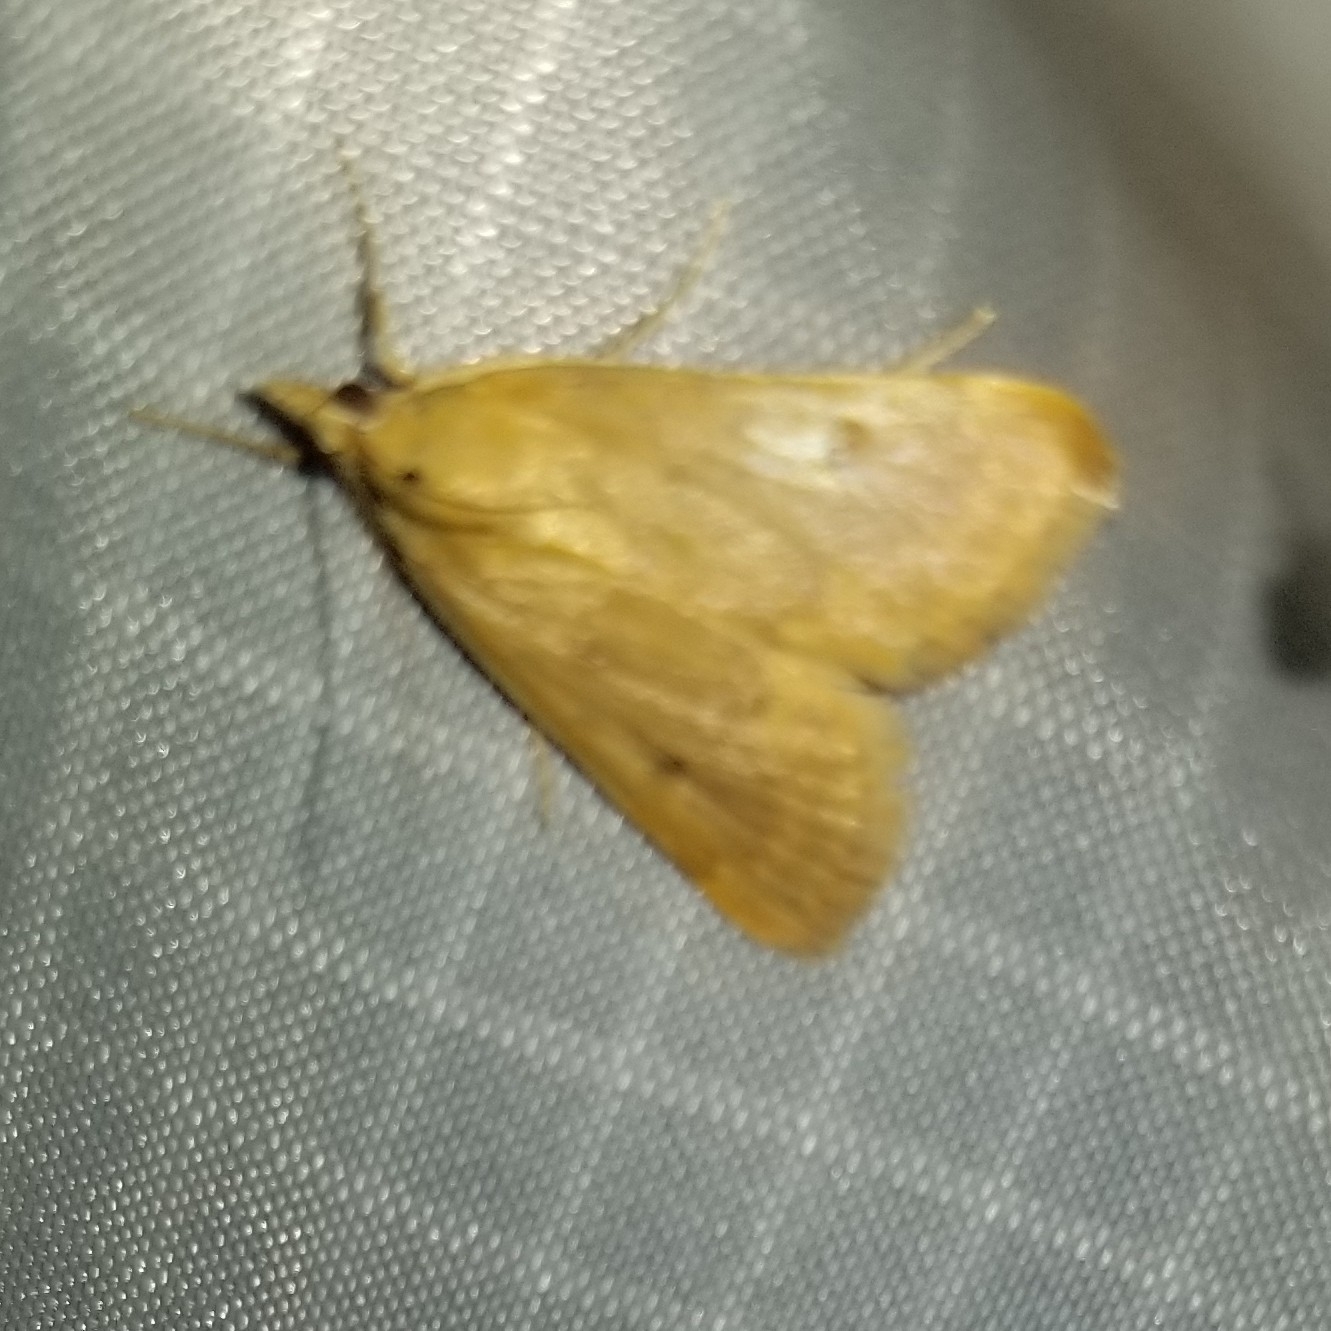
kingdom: Animalia
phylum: Arthropoda
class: Insecta
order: Lepidoptera
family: Crambidae
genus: Achyra
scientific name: Achyra rantalis
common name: Garden webworm
